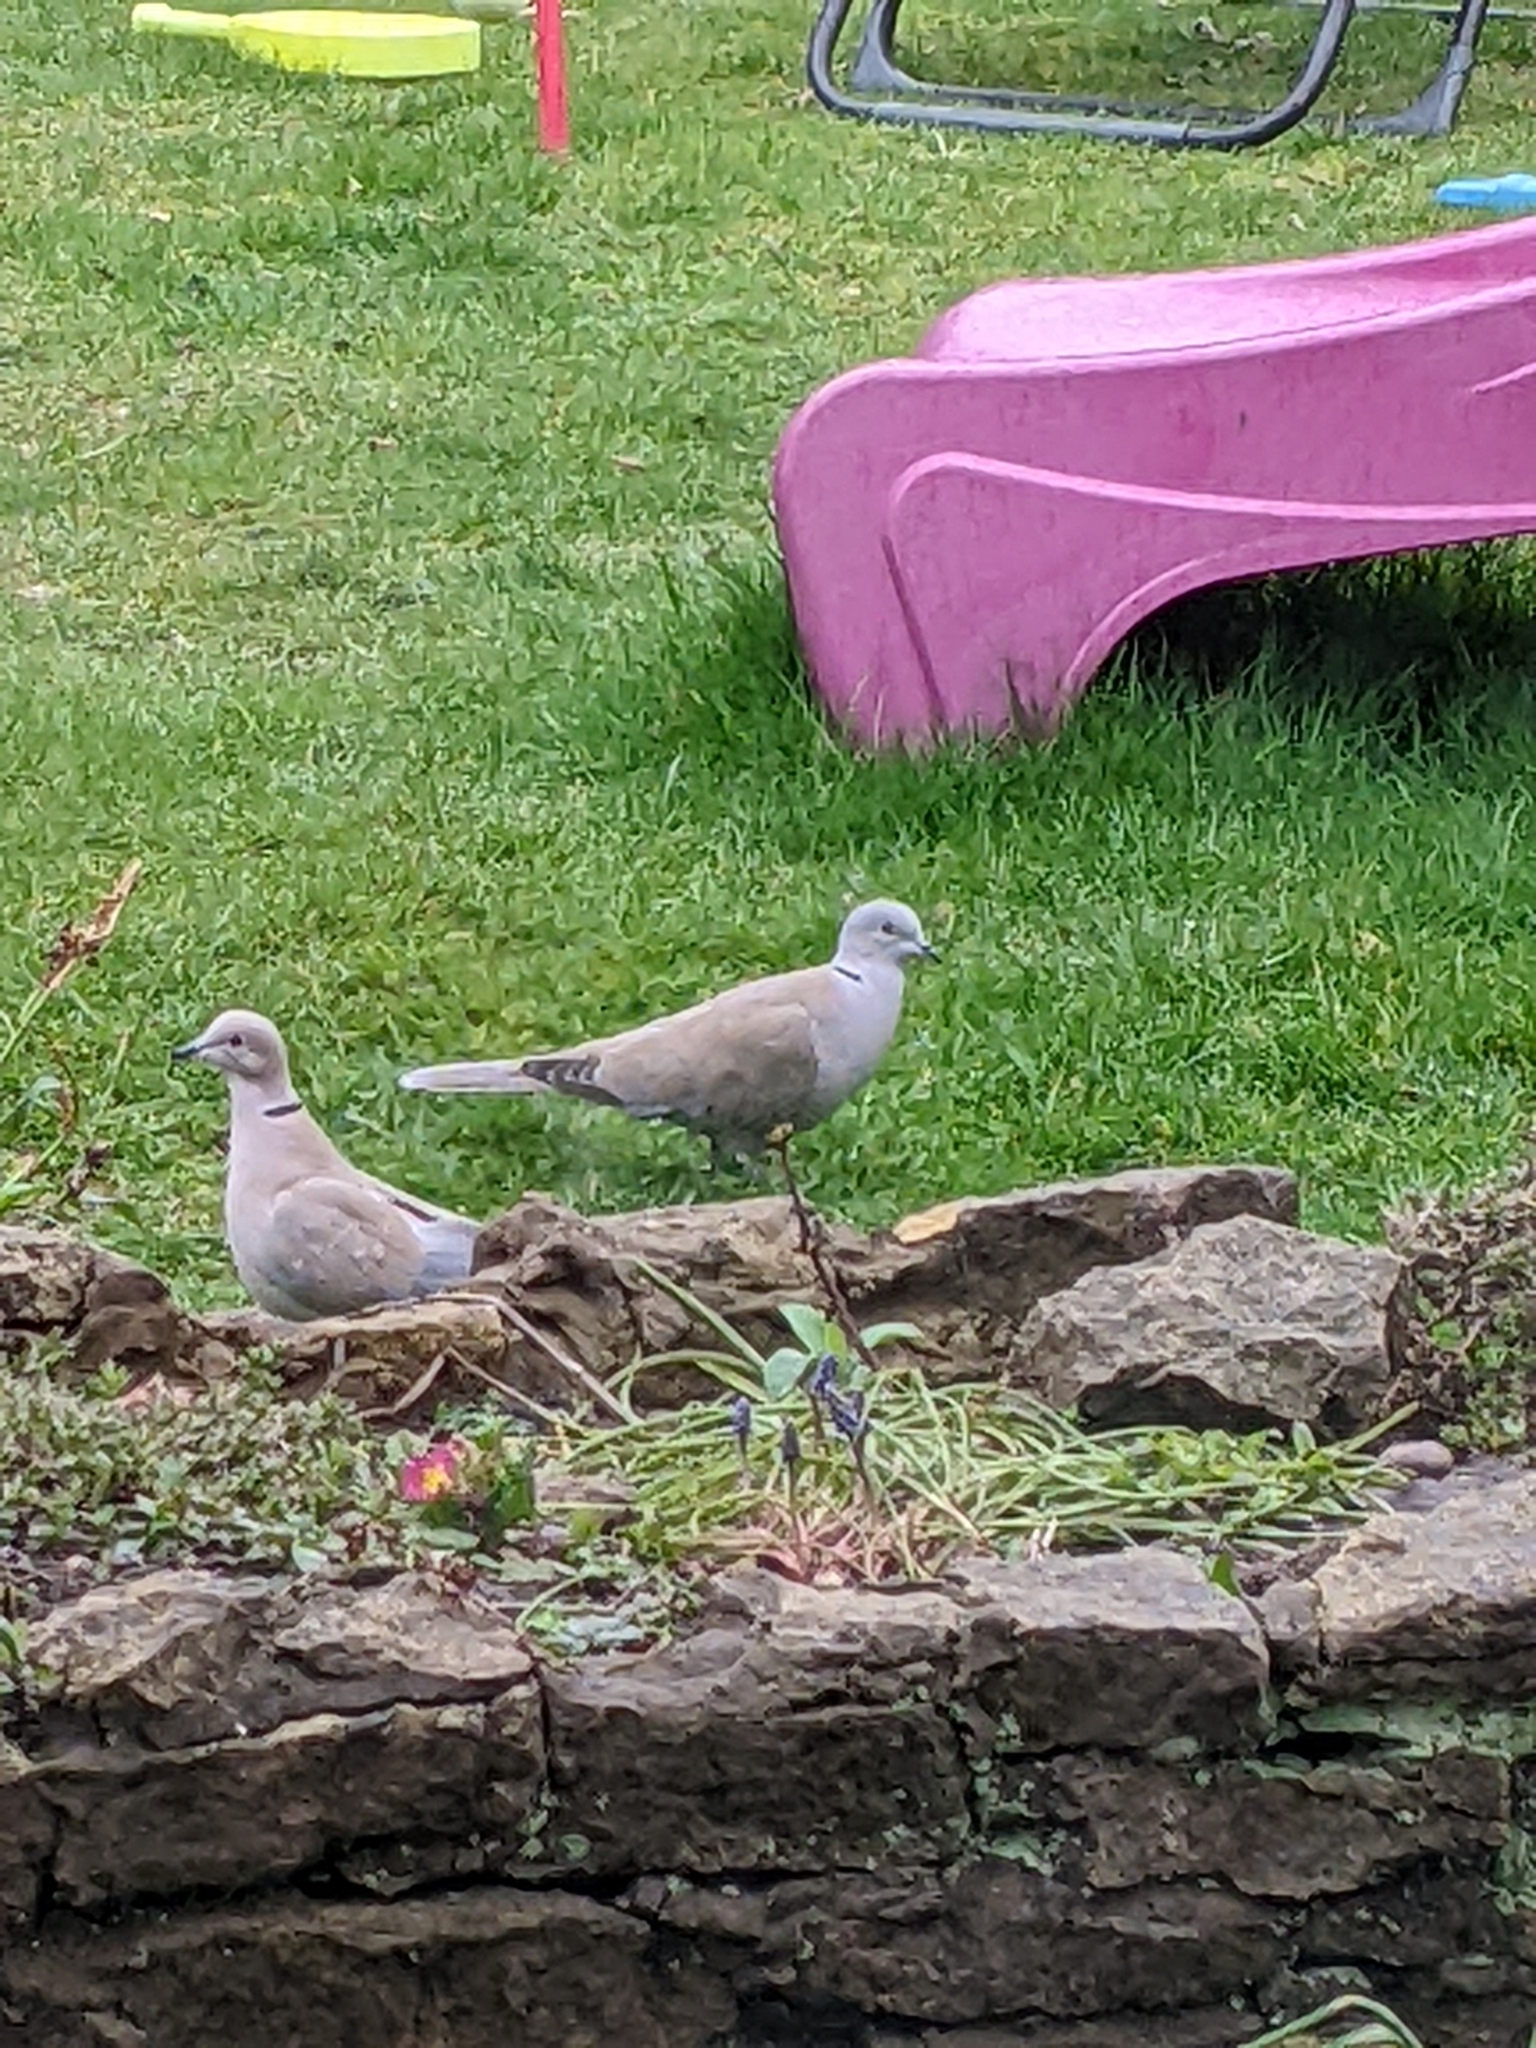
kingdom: Animalia
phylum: Chordata
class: Aves
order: Columbiformes
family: Columbidae
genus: Streptopelia
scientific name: Streptopelia decaocto
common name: Eurasian collared dove
